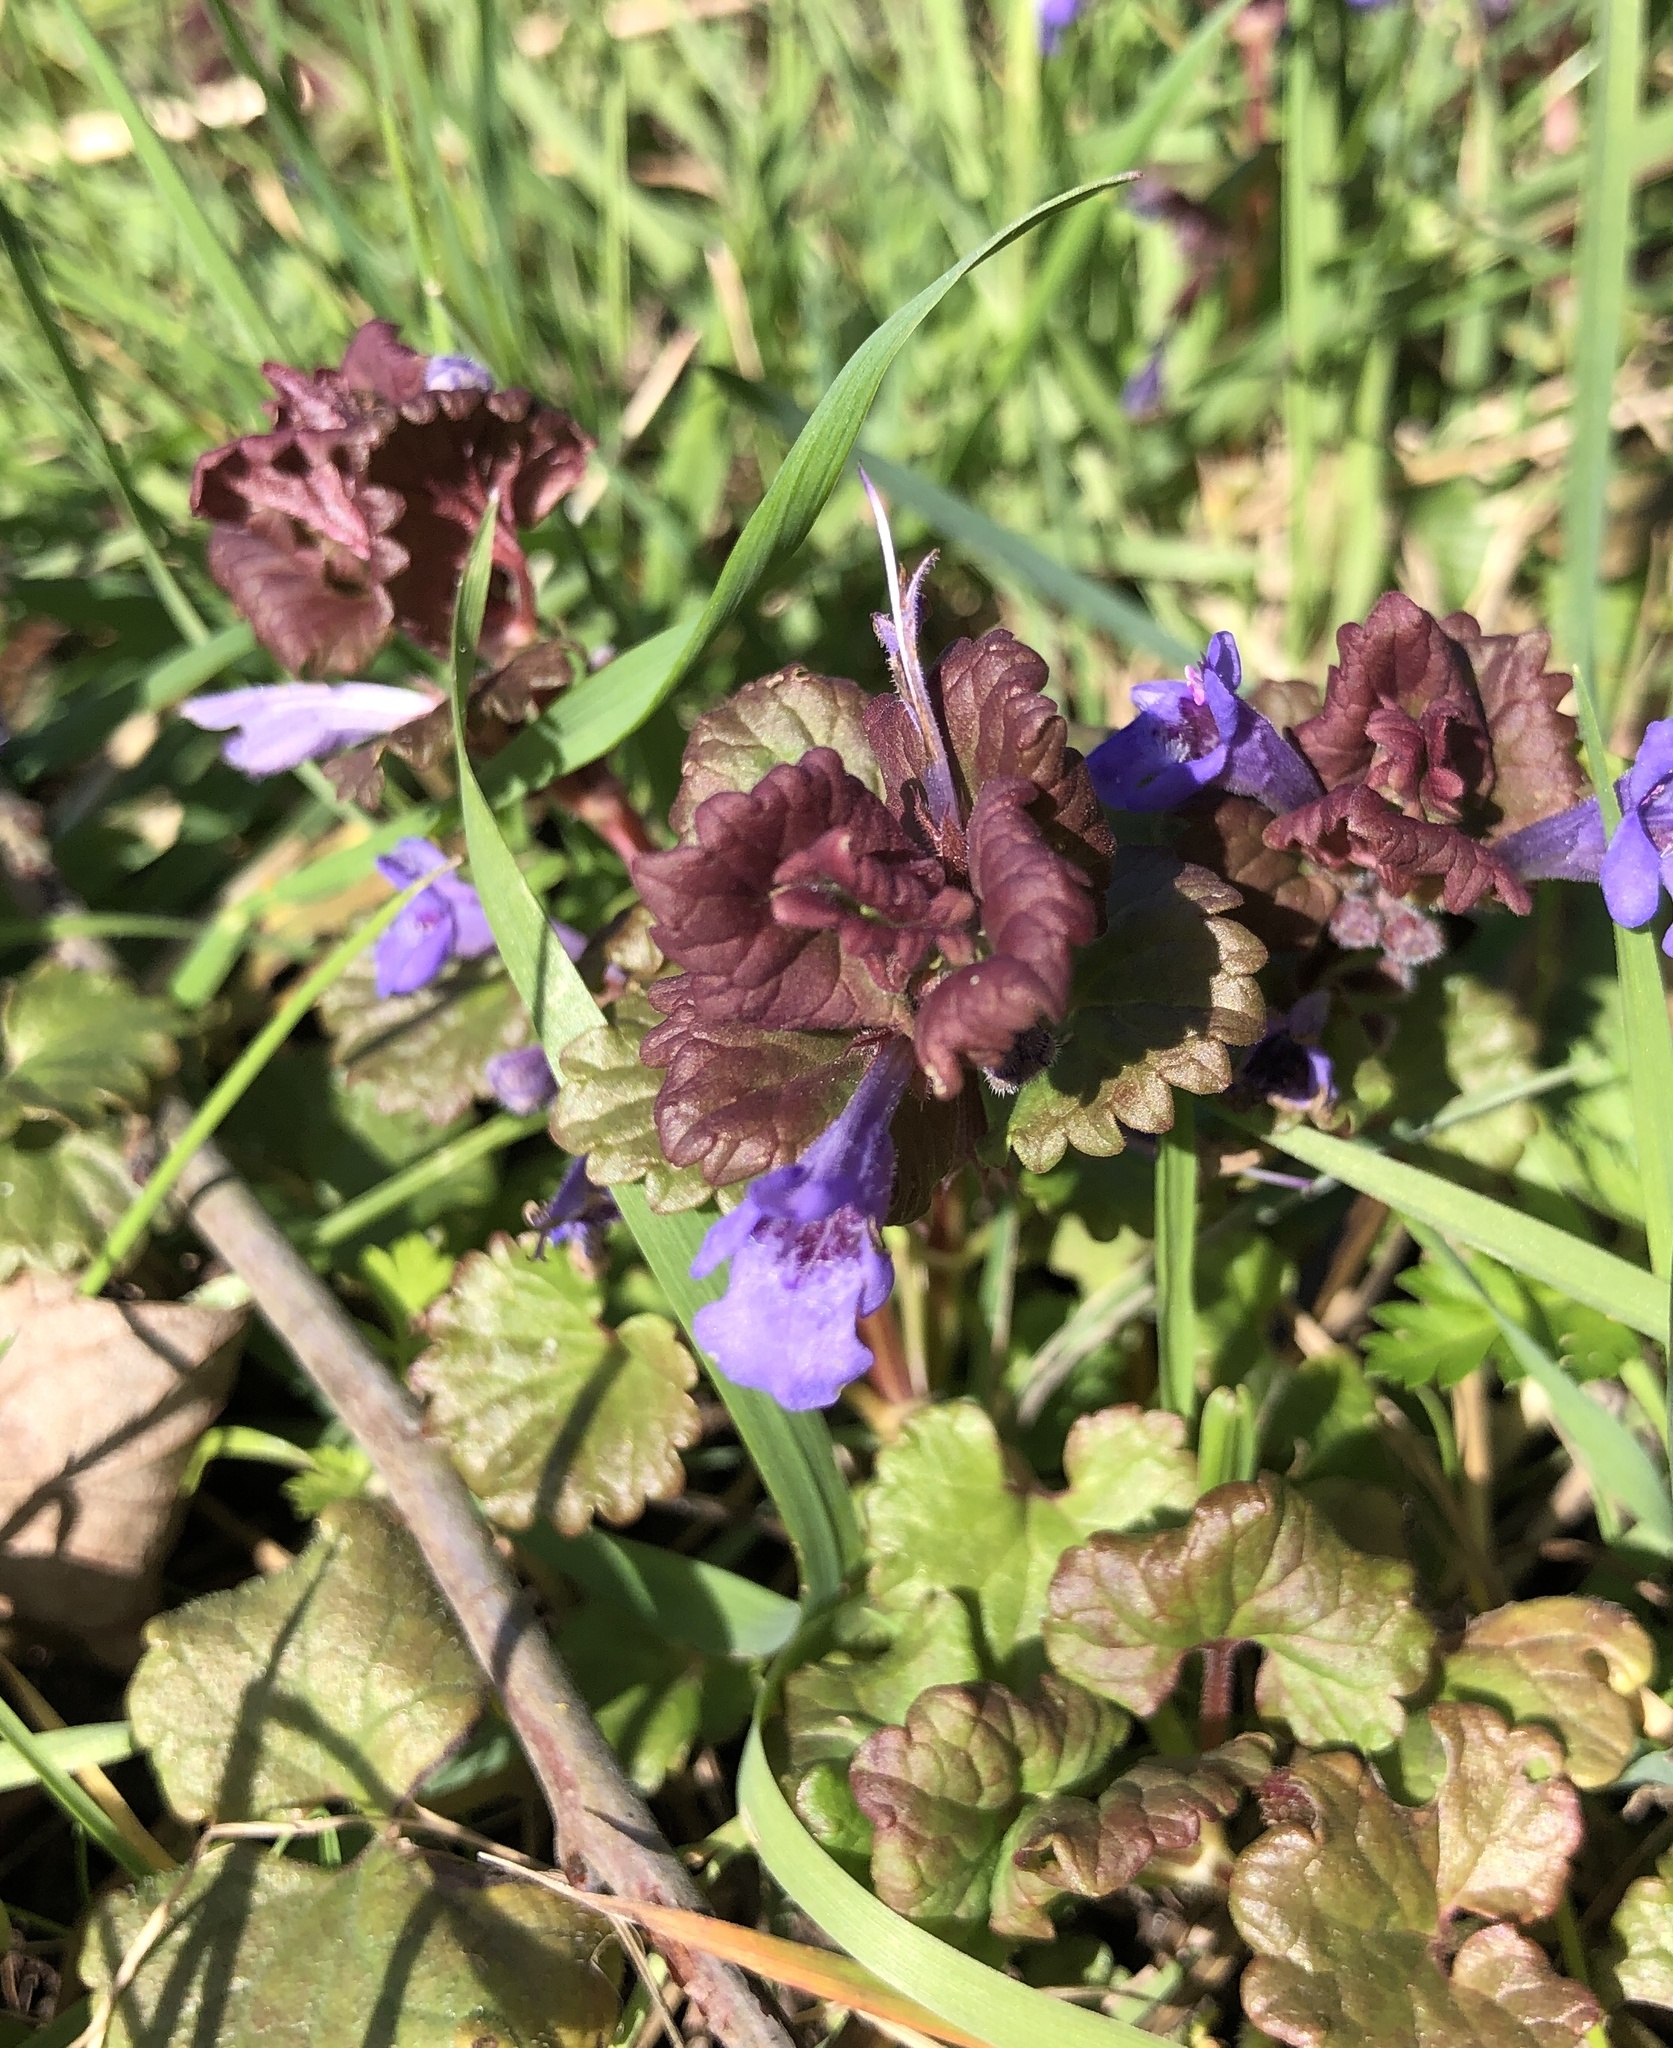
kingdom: Plantae
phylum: Tracheophyta
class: Magnoliopsida
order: Lamiales
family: Lamiaceae
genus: Glechoma
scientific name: Glechoma hederacea
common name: Ground ivy
